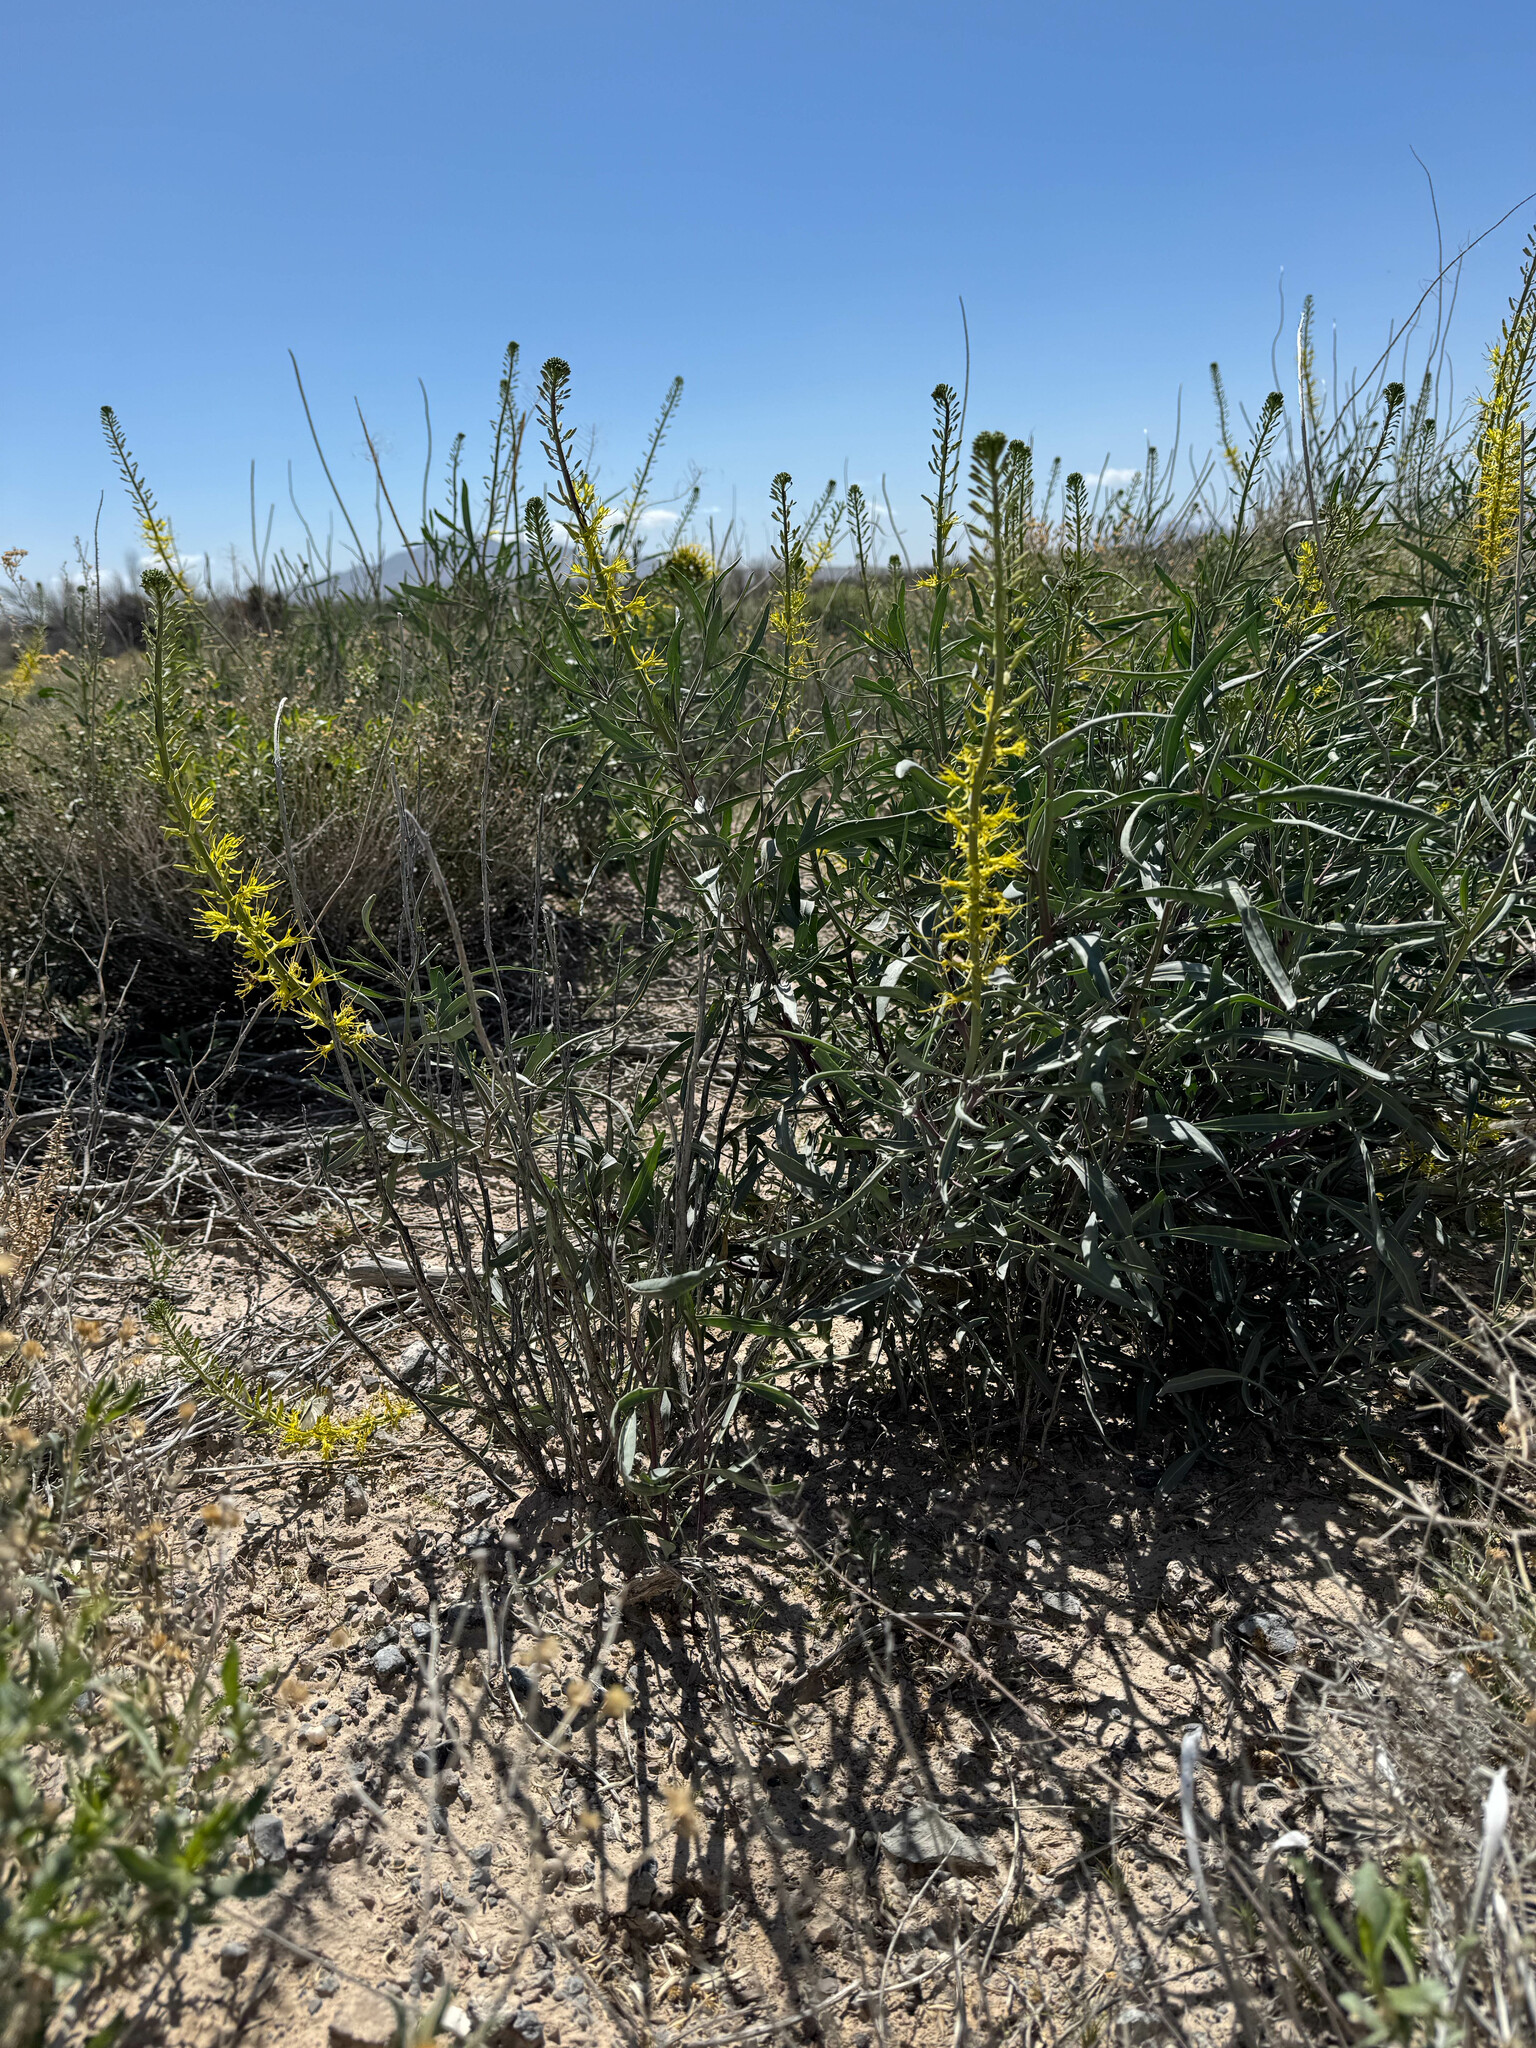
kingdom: Plantae
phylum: Tracheophyta
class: Magnoliopsida
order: Brassicales
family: Brassicaceae
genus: Stanleya
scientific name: Stanleya pinnata
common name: Prince's-plume
